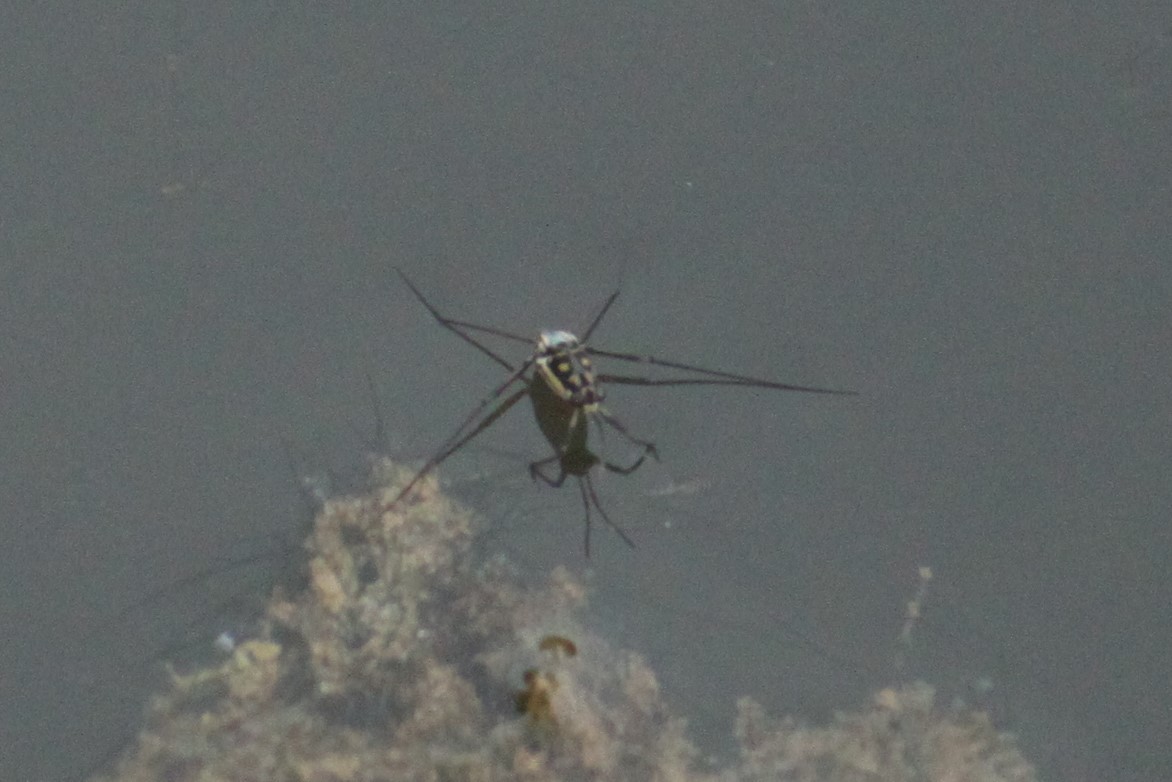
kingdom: Animalia
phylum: Arthropoda
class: Insecta
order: Hemiptera
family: Gerridae
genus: Trepobates
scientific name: Trepobates subnitidus
